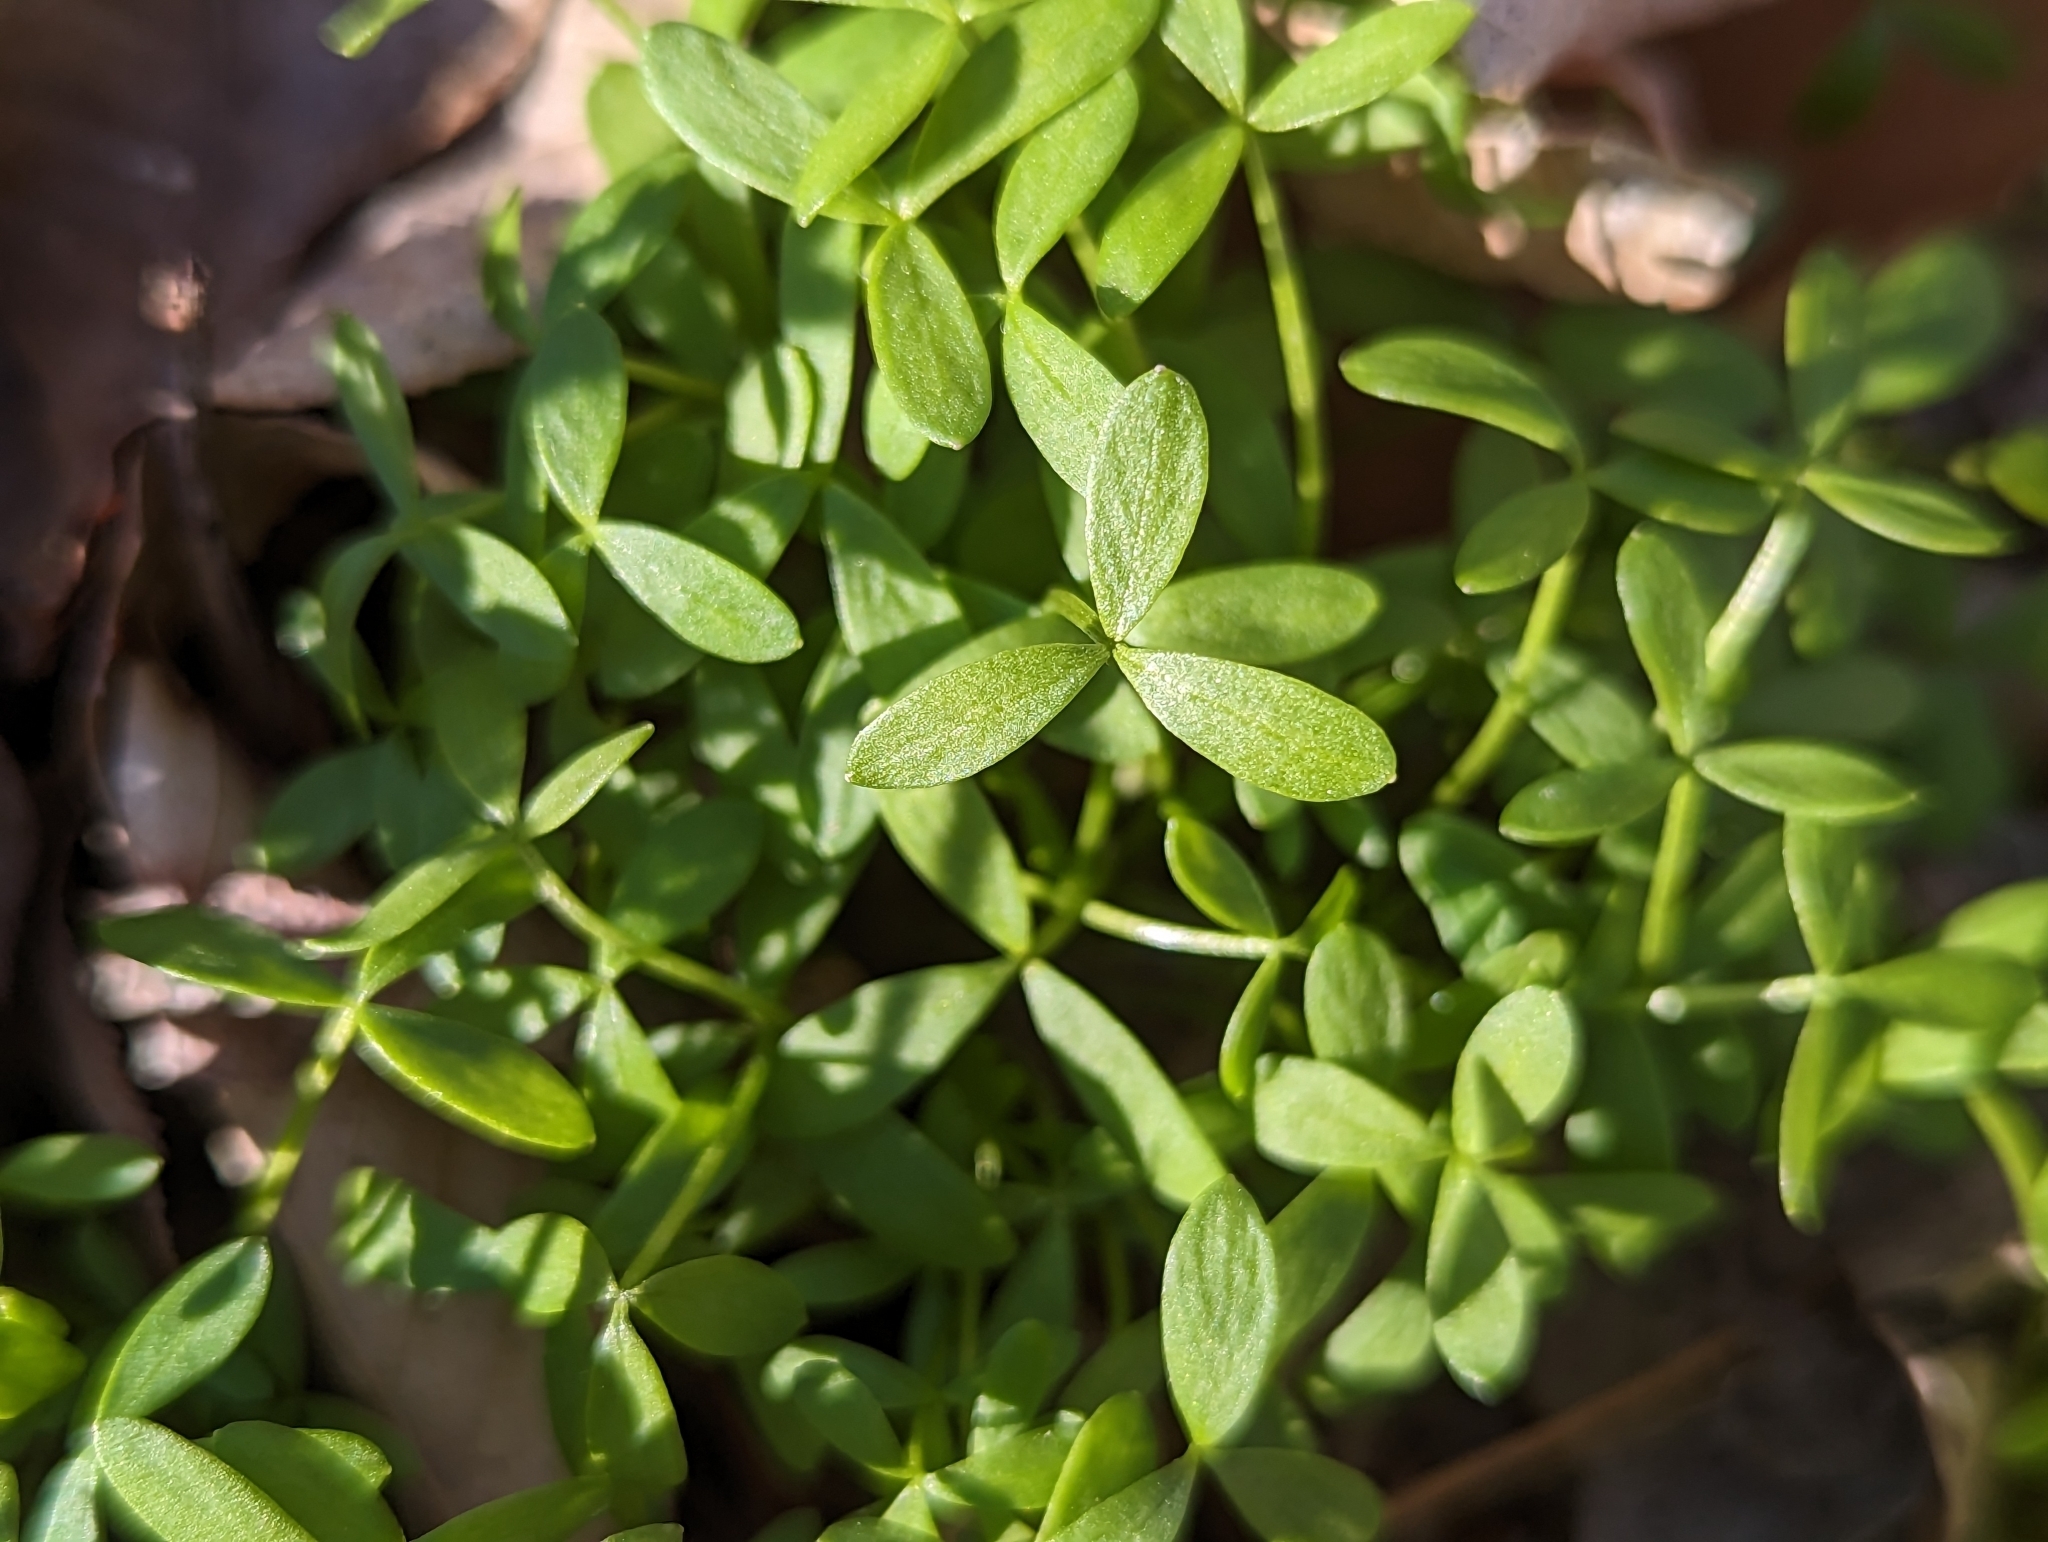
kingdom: Plantae
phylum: Tracheophyta
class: Magnoliopsida
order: Brassicales
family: Limnanthaceae
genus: Floerkea
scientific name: Floerkea proserpinacoides
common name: False mermaid
